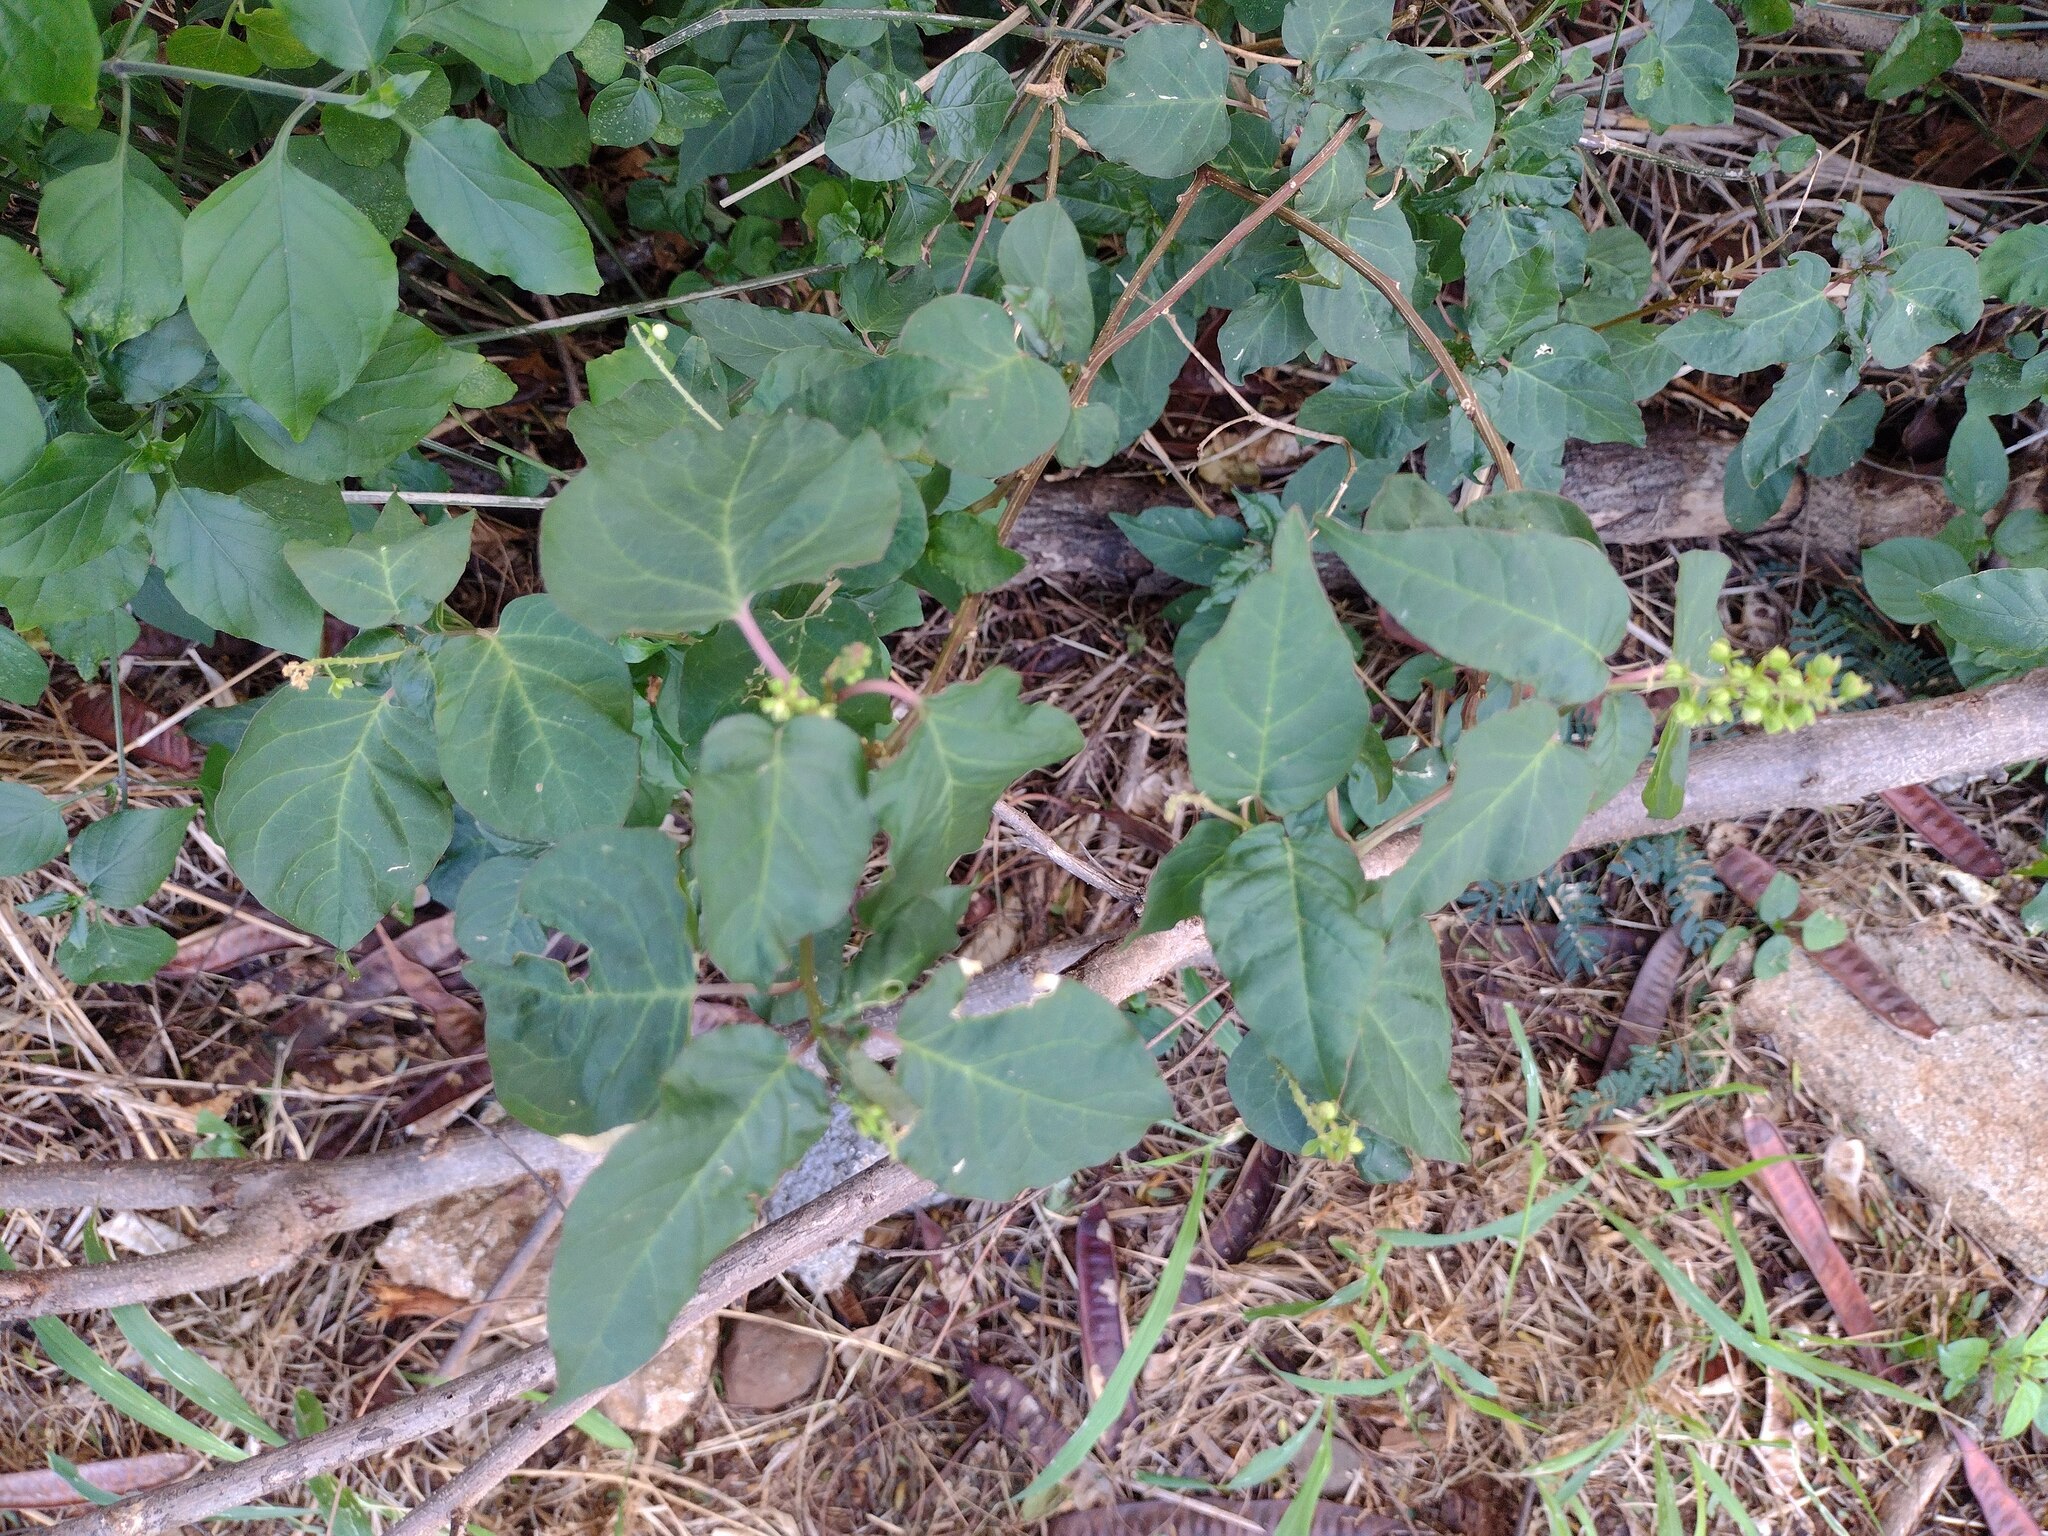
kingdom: Plantae
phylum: Tracheophyta
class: Magnoliopsida
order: Caryophyllales
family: Phytolaccaceae
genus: Rivina
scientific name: Rivina humilis
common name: Rougeplant
